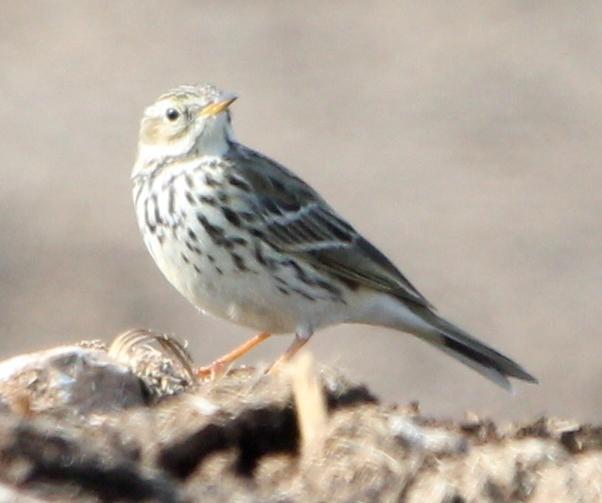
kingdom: Animalia
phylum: Chordata
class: Aves
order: Passeriformes
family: Motacillidae
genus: Anthus
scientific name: Anthus pratensis
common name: Meadow pipit
